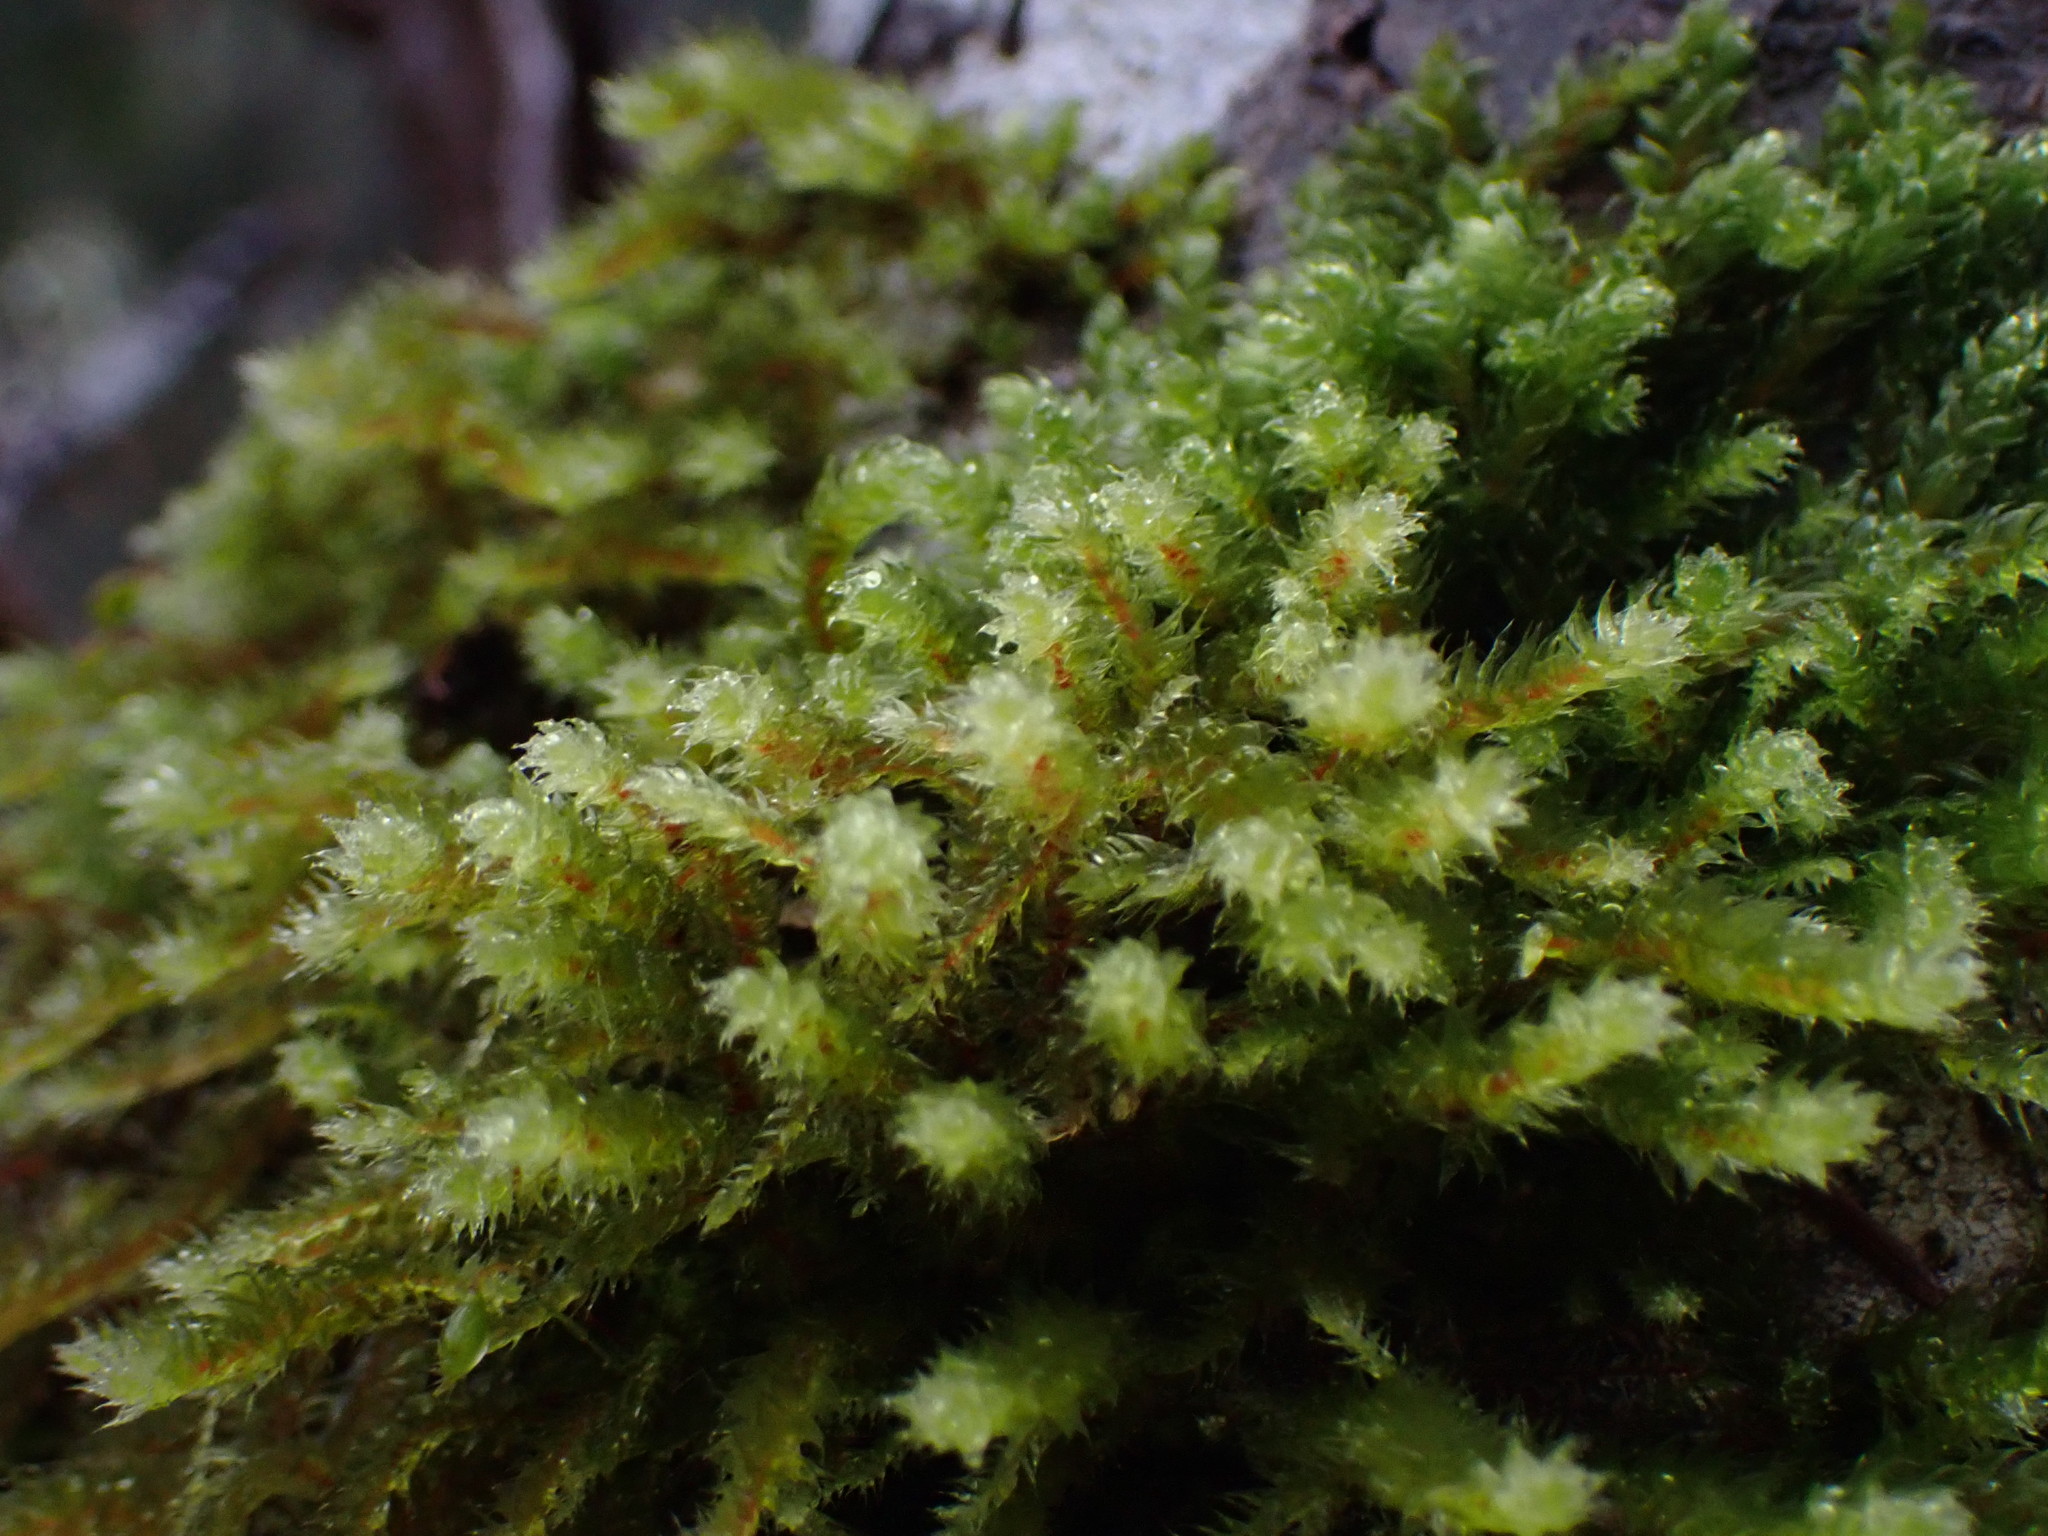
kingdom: Plantae
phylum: Bryophyta
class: Bryopsida
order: Hypnales
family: Antitrichiaceae
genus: Antitrichia
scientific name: Antitrichia curtipendula
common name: Pendulous wing-moss
